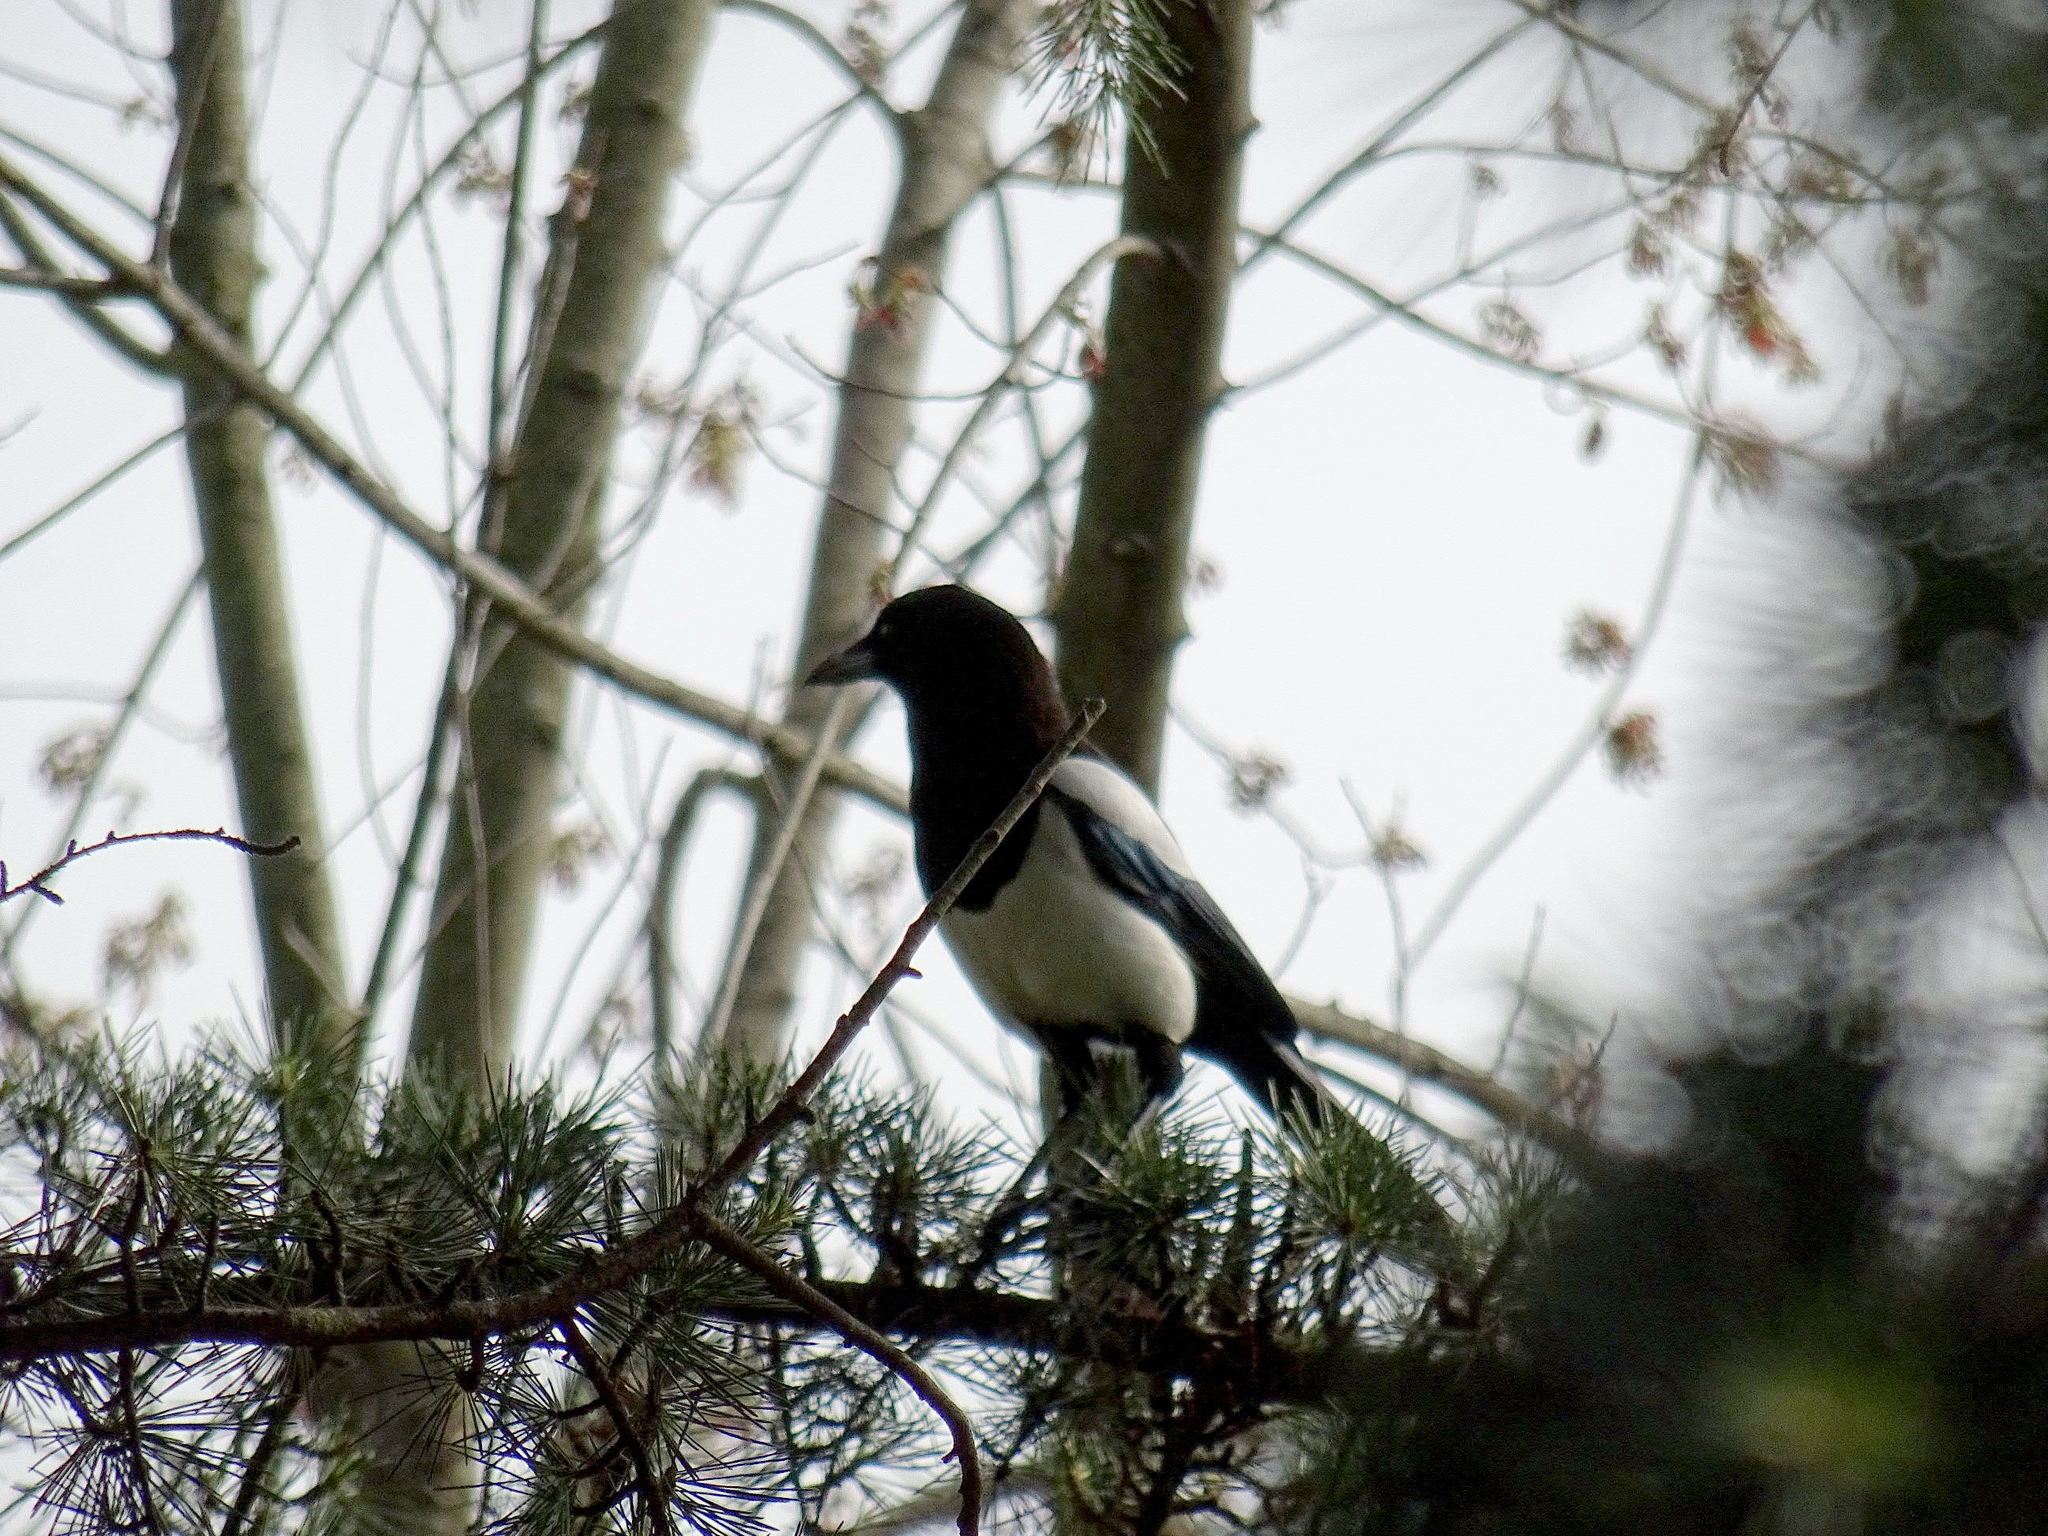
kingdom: Animalia
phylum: Chordata
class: Aves
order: Passeriformes
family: Corvidae
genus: Pica
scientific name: Pica pica
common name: Eurasian magpie
